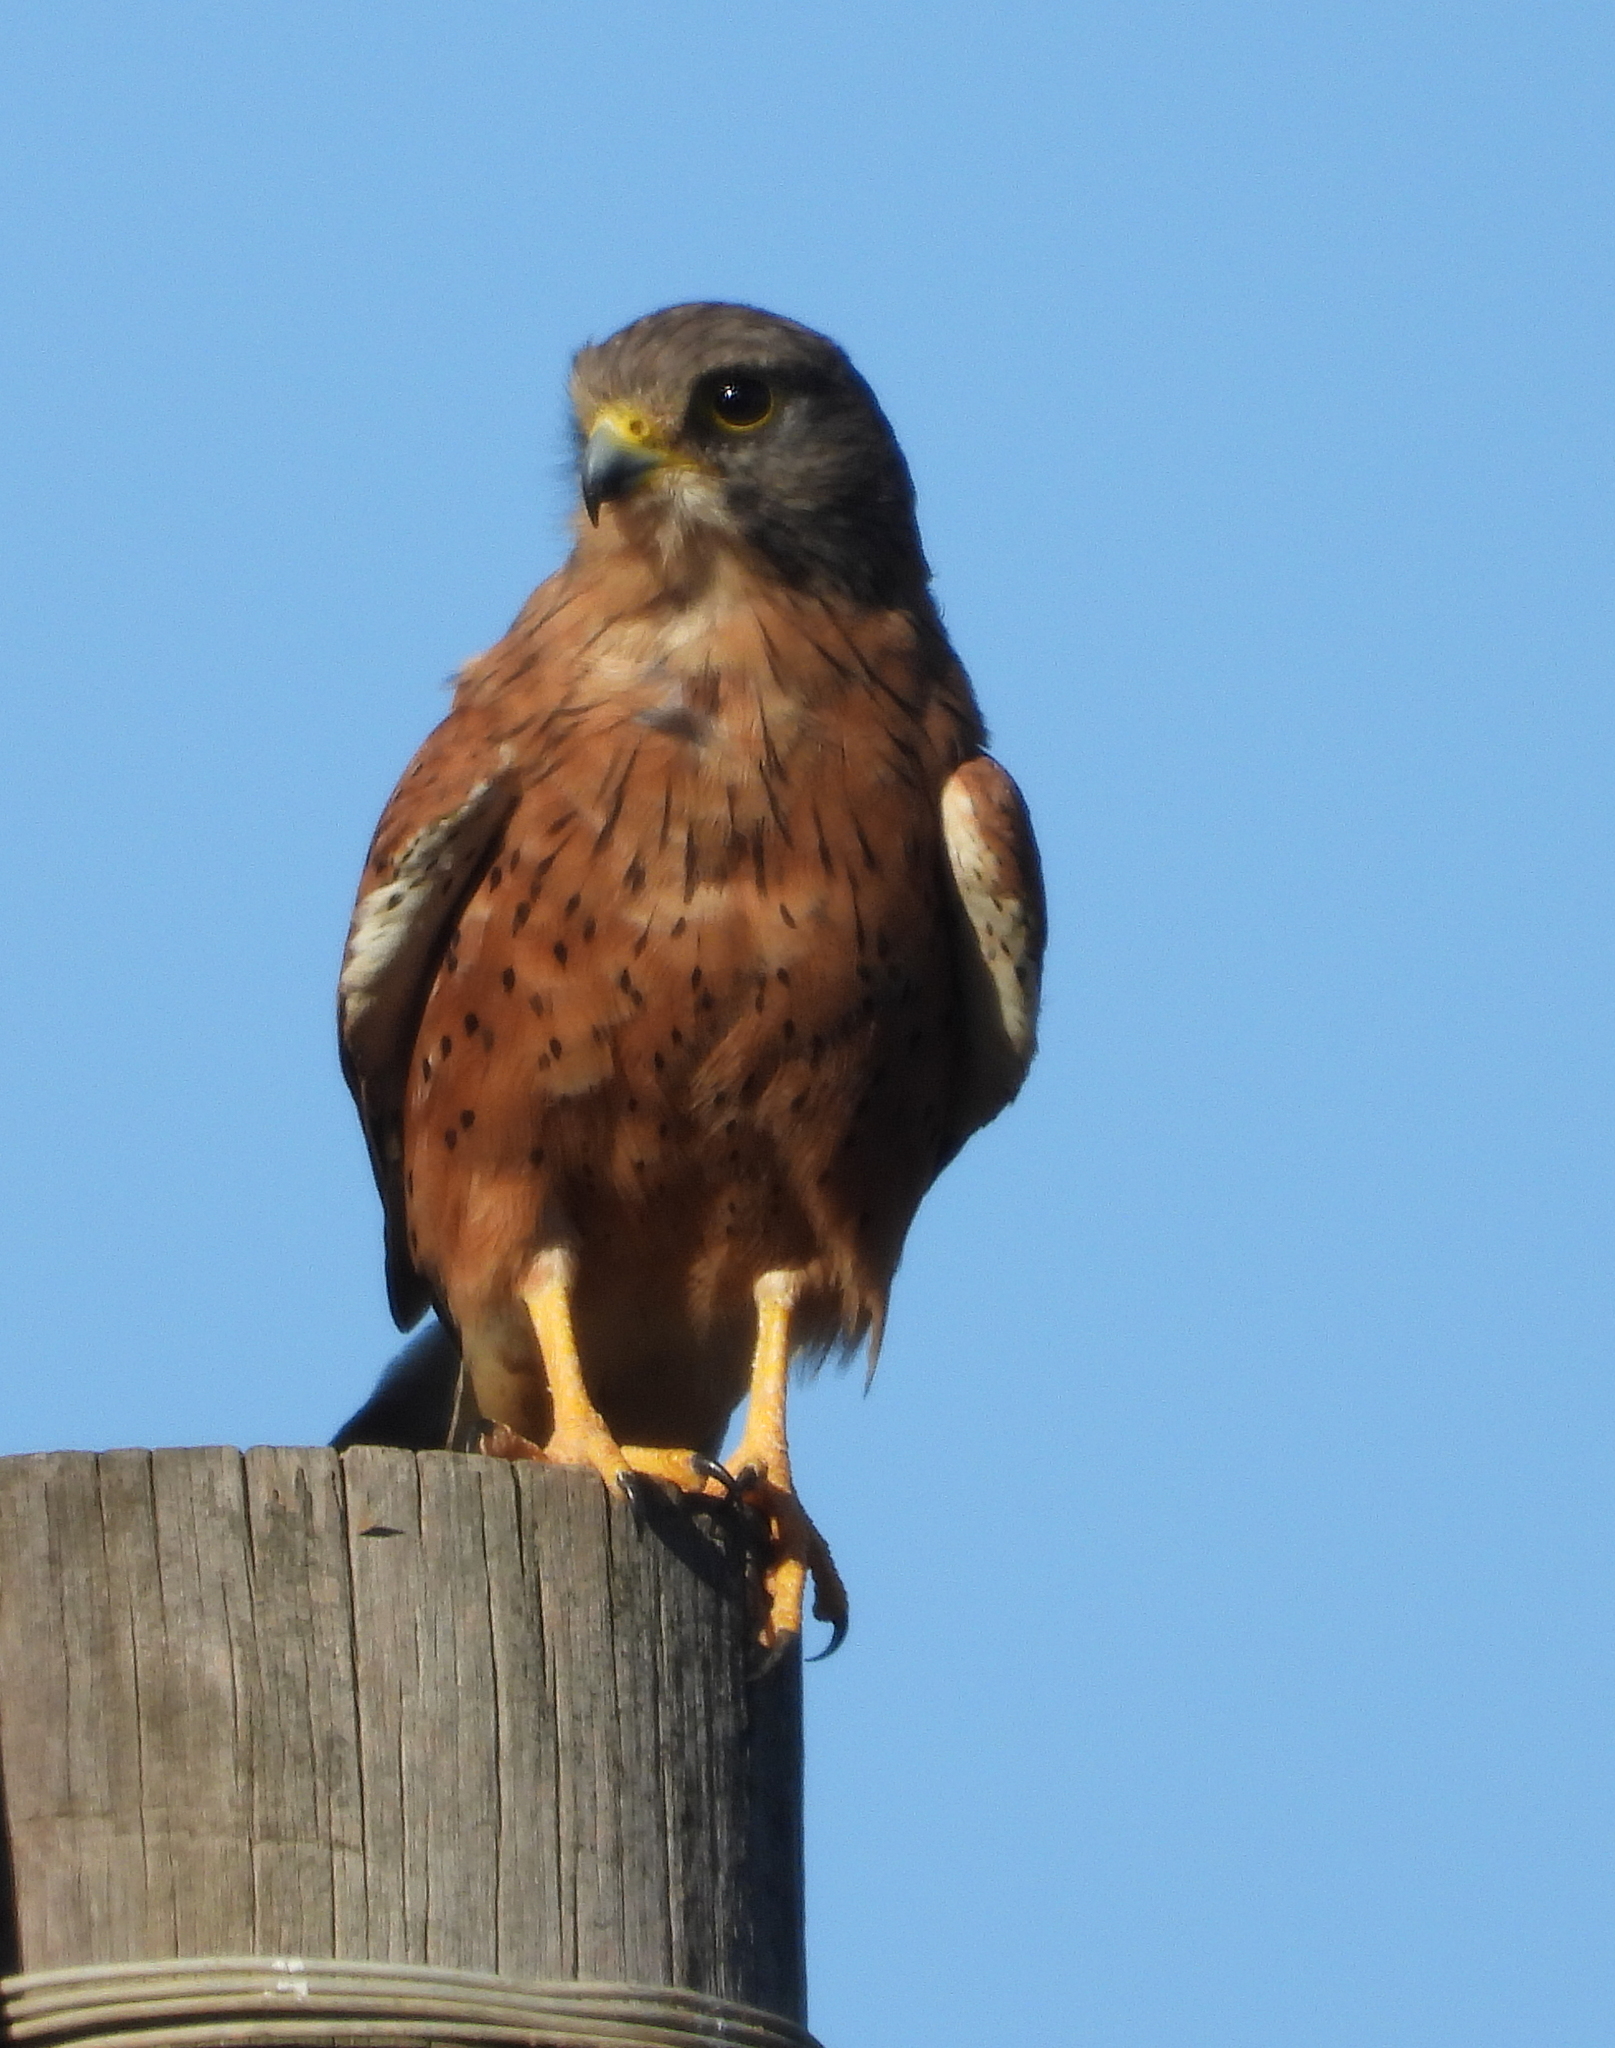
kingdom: Animalia
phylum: Chordata
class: Aves
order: Falconiformes
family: Falconidae
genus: Falco
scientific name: Falco rupicolus
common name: Rock kestrel
